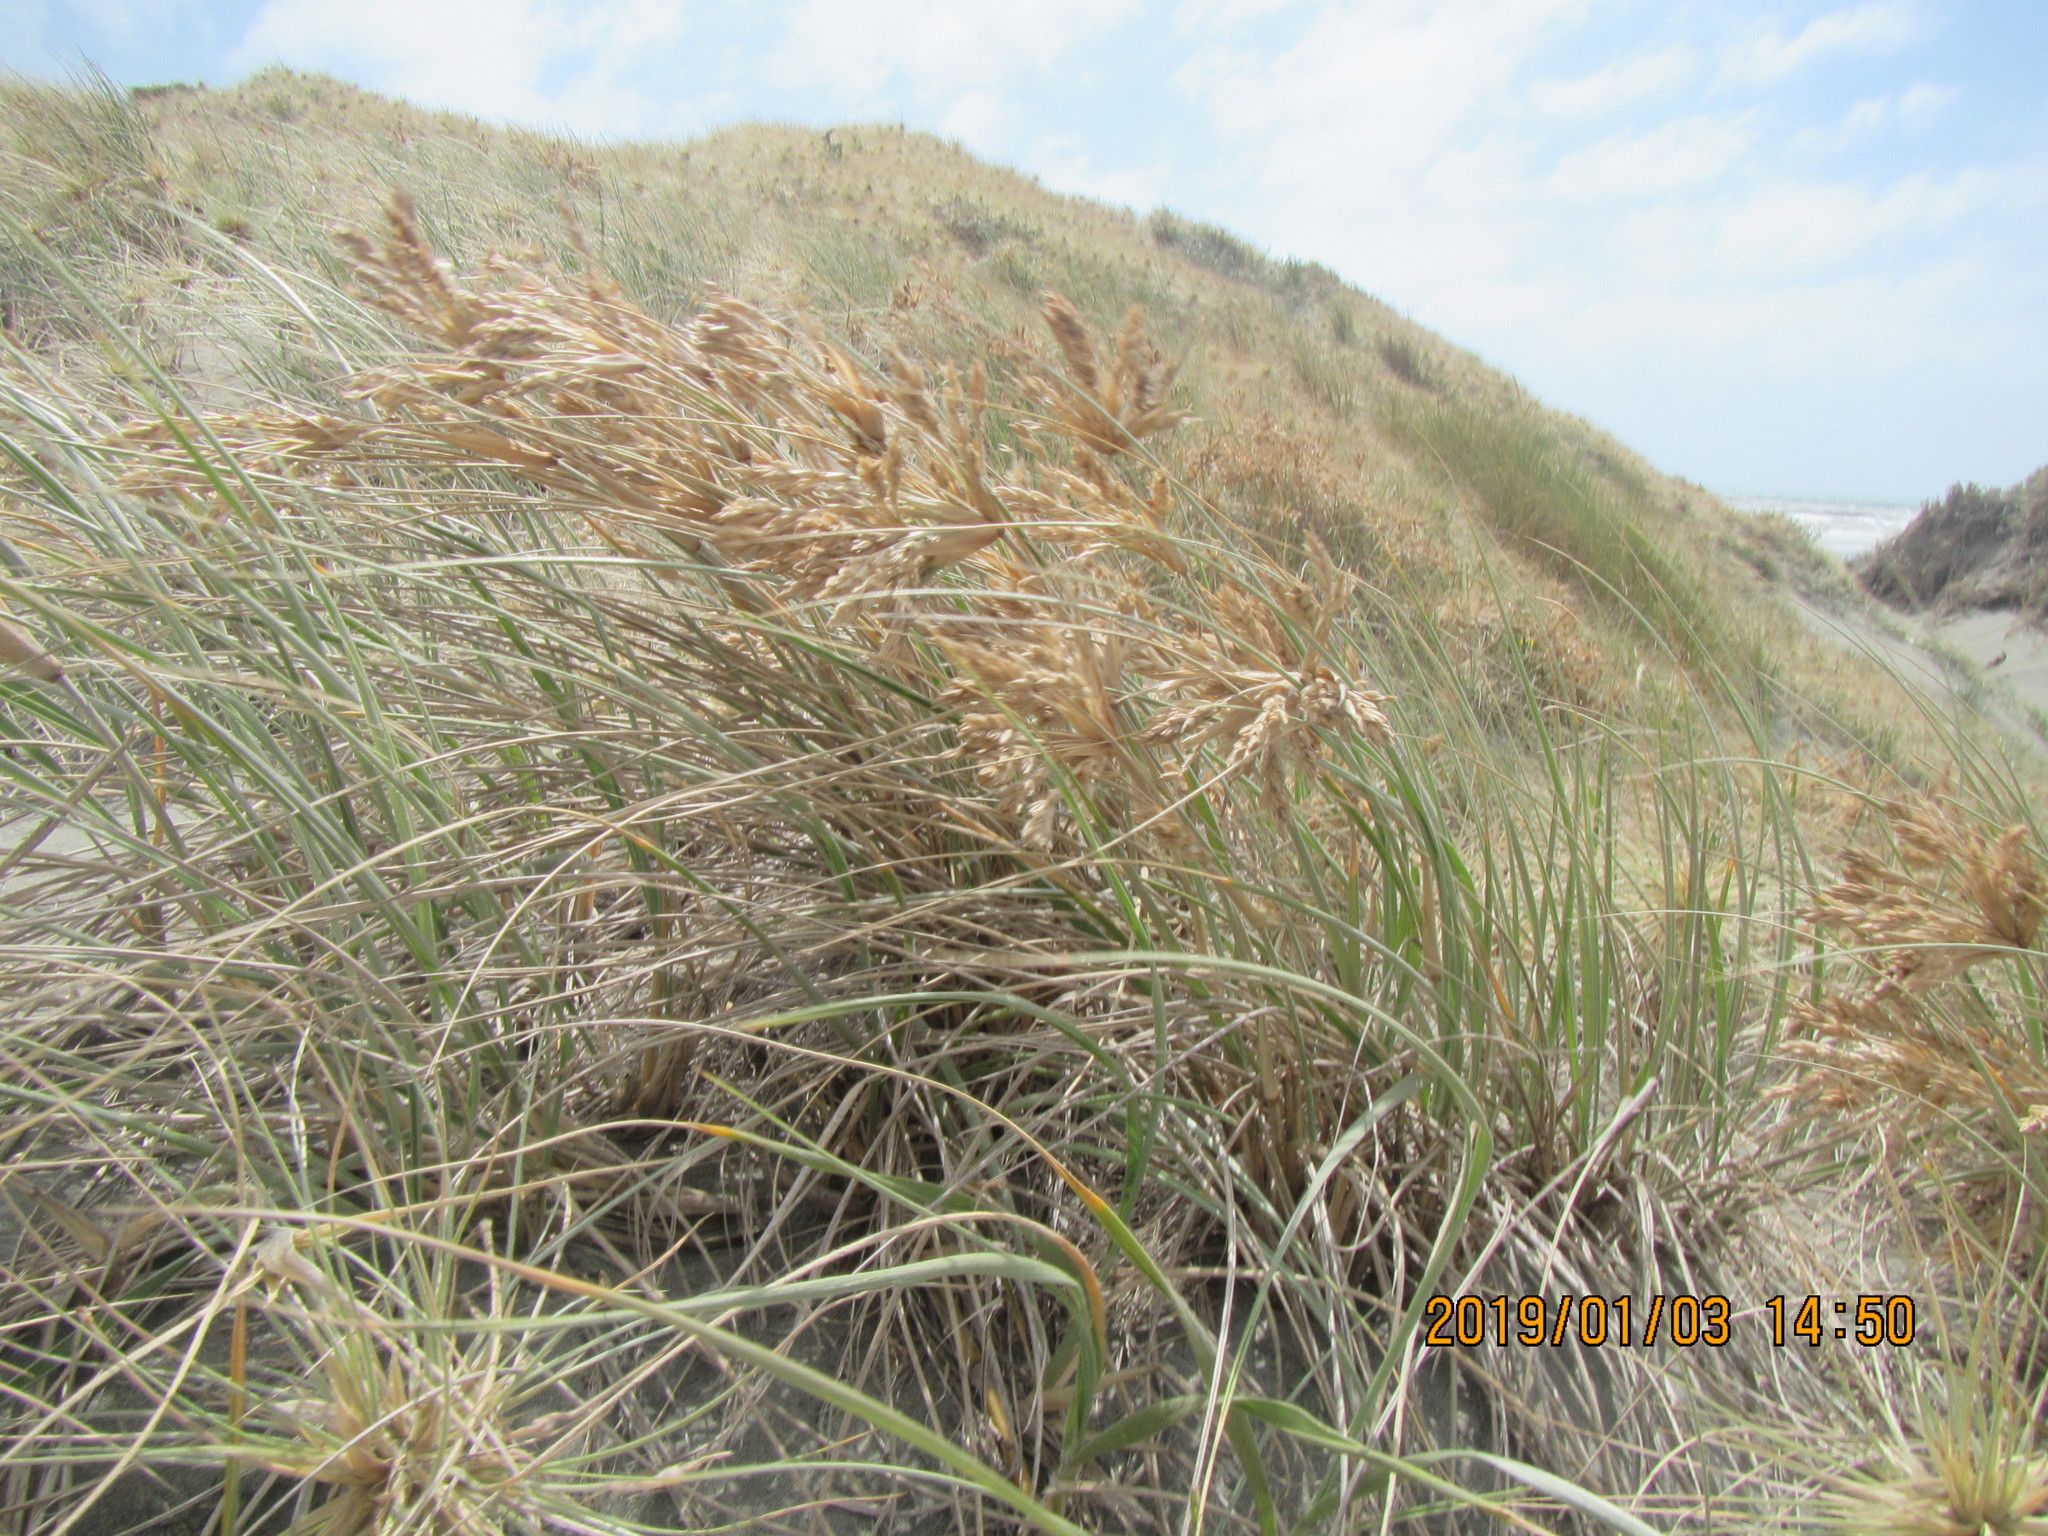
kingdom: Plantae
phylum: Tracheophyta
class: Liliopsida
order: Poales
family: Poaceae
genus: Spinifex
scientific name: Spinifex sericeus
